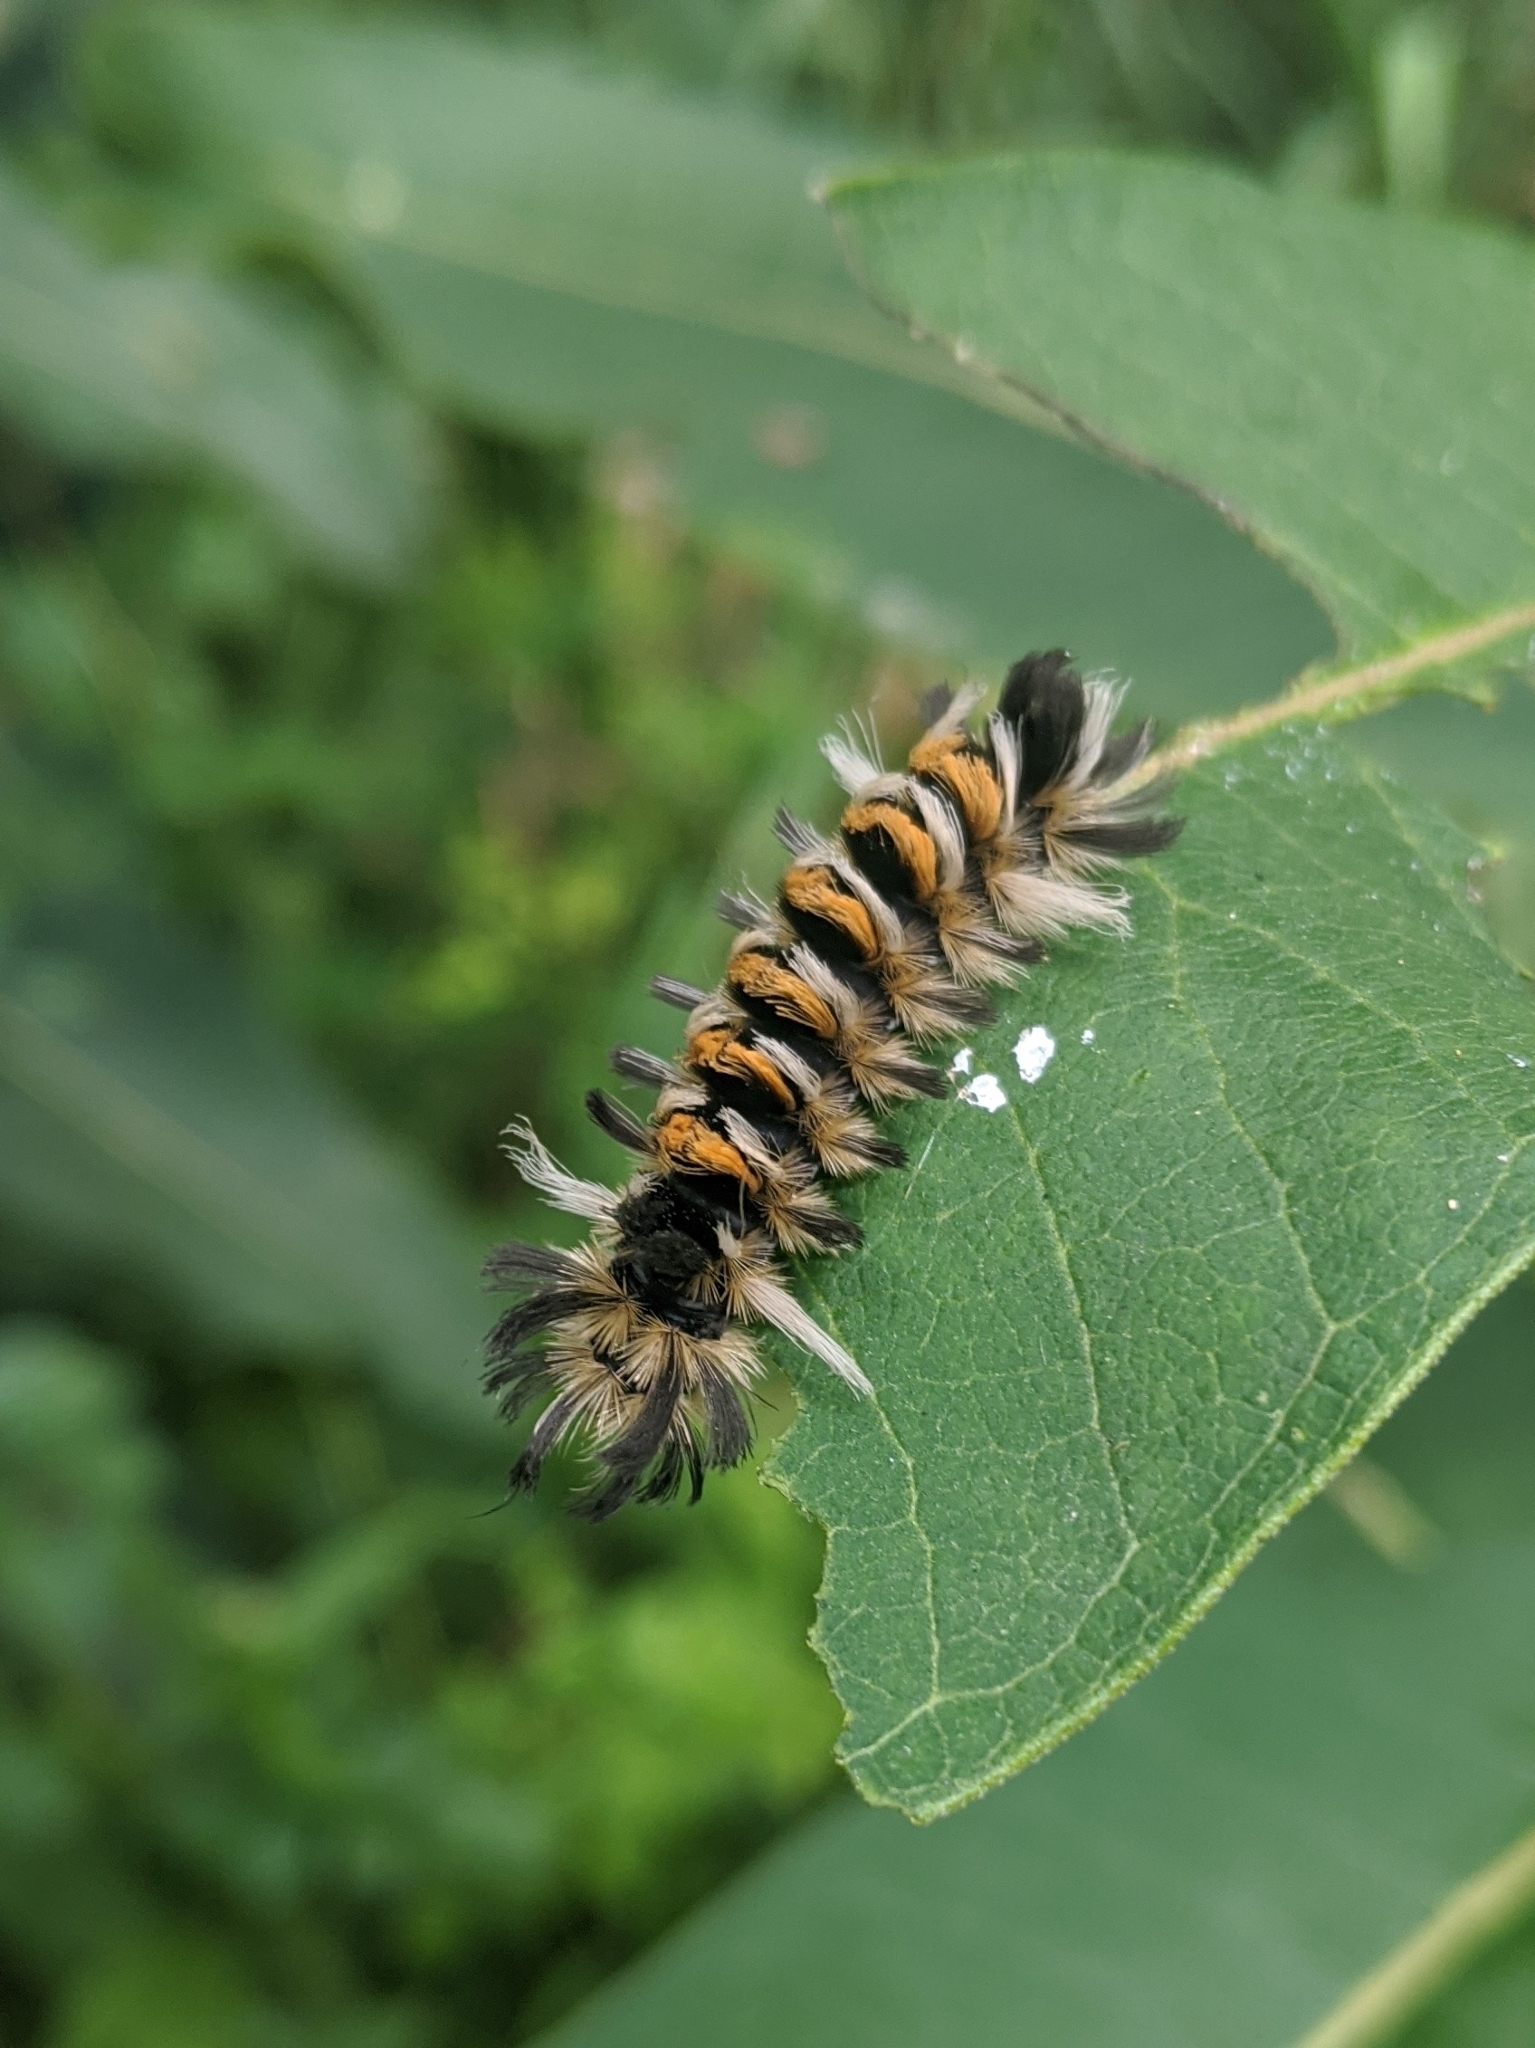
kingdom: Animalia
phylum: Arthropoda
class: Insecta
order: Lepidoptera
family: Erebidae
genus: Euchaetes
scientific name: Euchaetes egle
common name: Milkweed tussock moth
